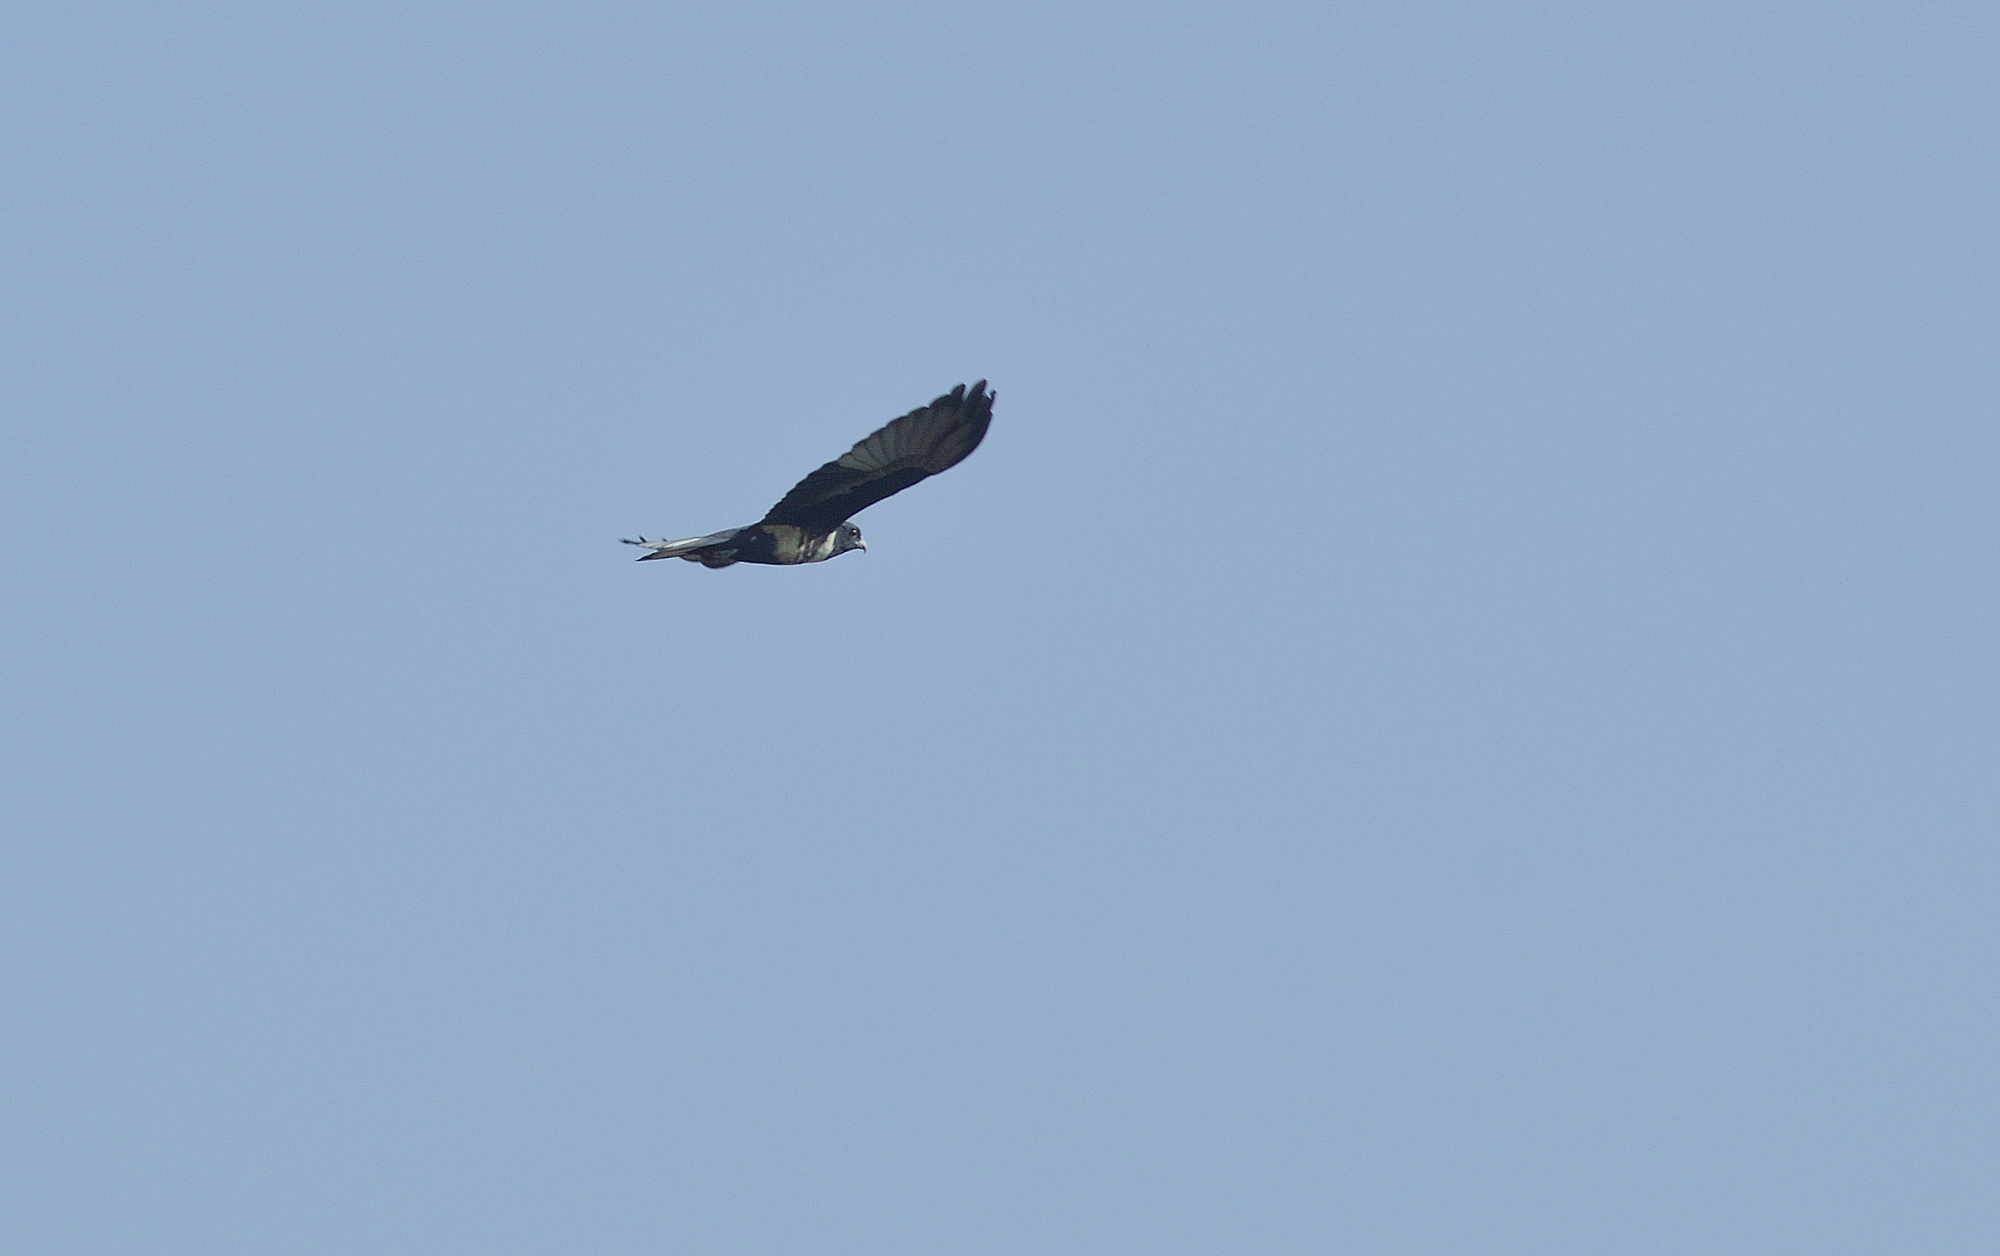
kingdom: Animalia
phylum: Chordata
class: Aves
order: Accipitriformes
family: Accipitridae
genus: Aviceda
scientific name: Aviceda leuphotes
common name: Black baza
